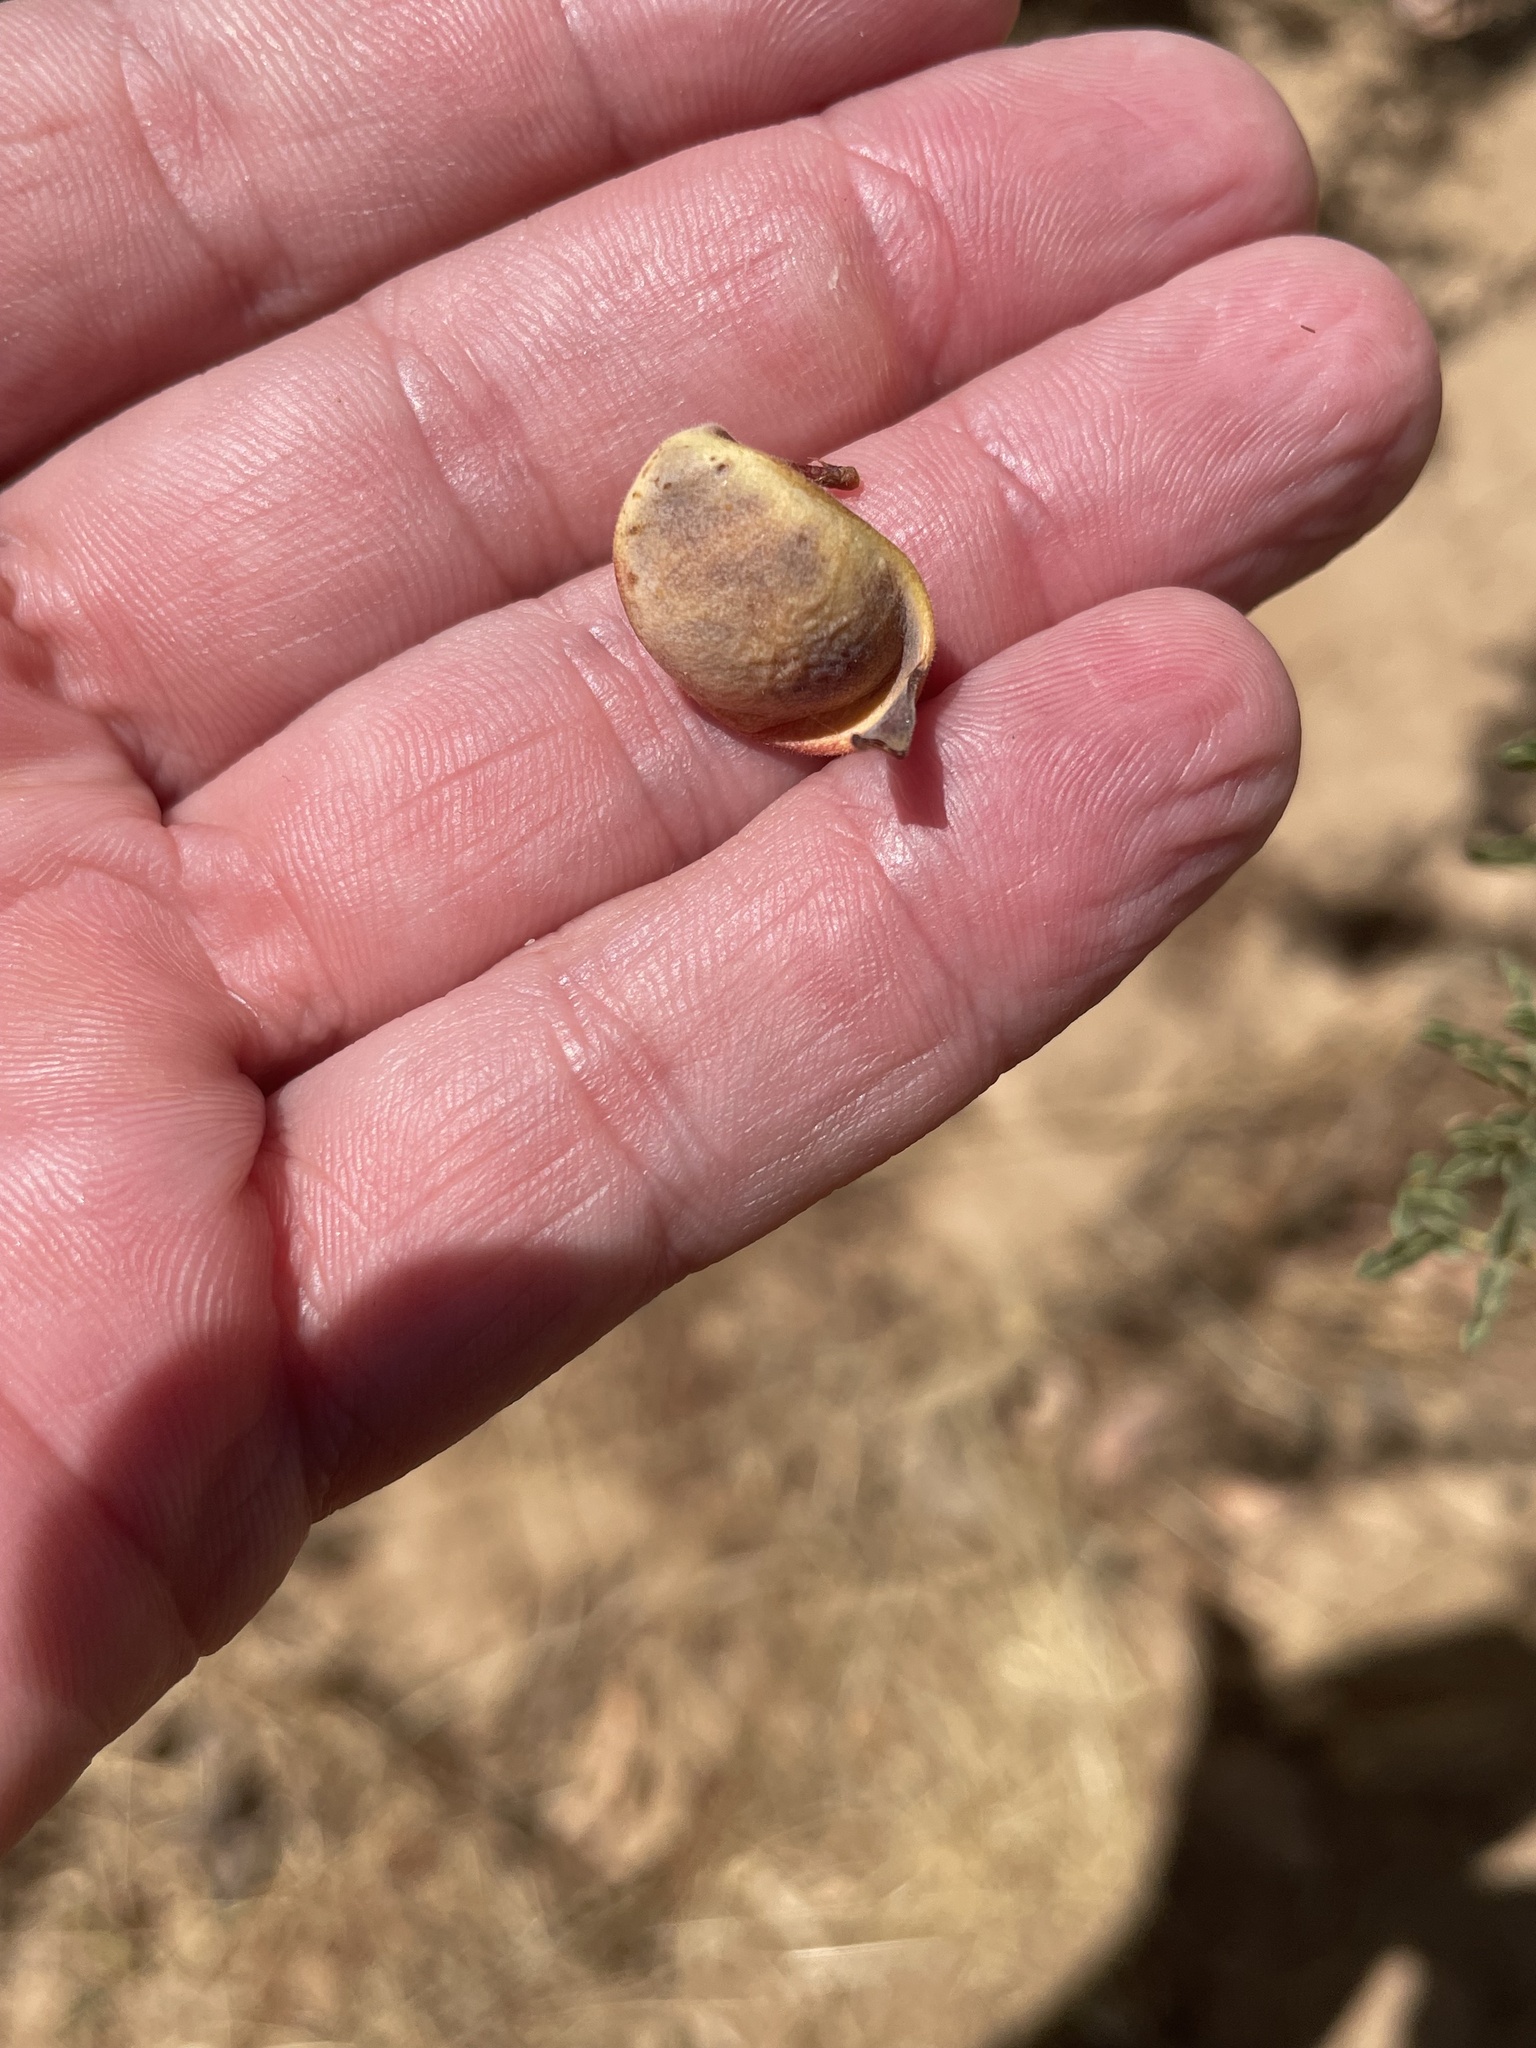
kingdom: Plantae
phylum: Tracheophyta
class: Magnoliopsida
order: Fabales
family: Fabaceae
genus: Senegalia
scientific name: Senegalia greggii
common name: Texas-mimosa
